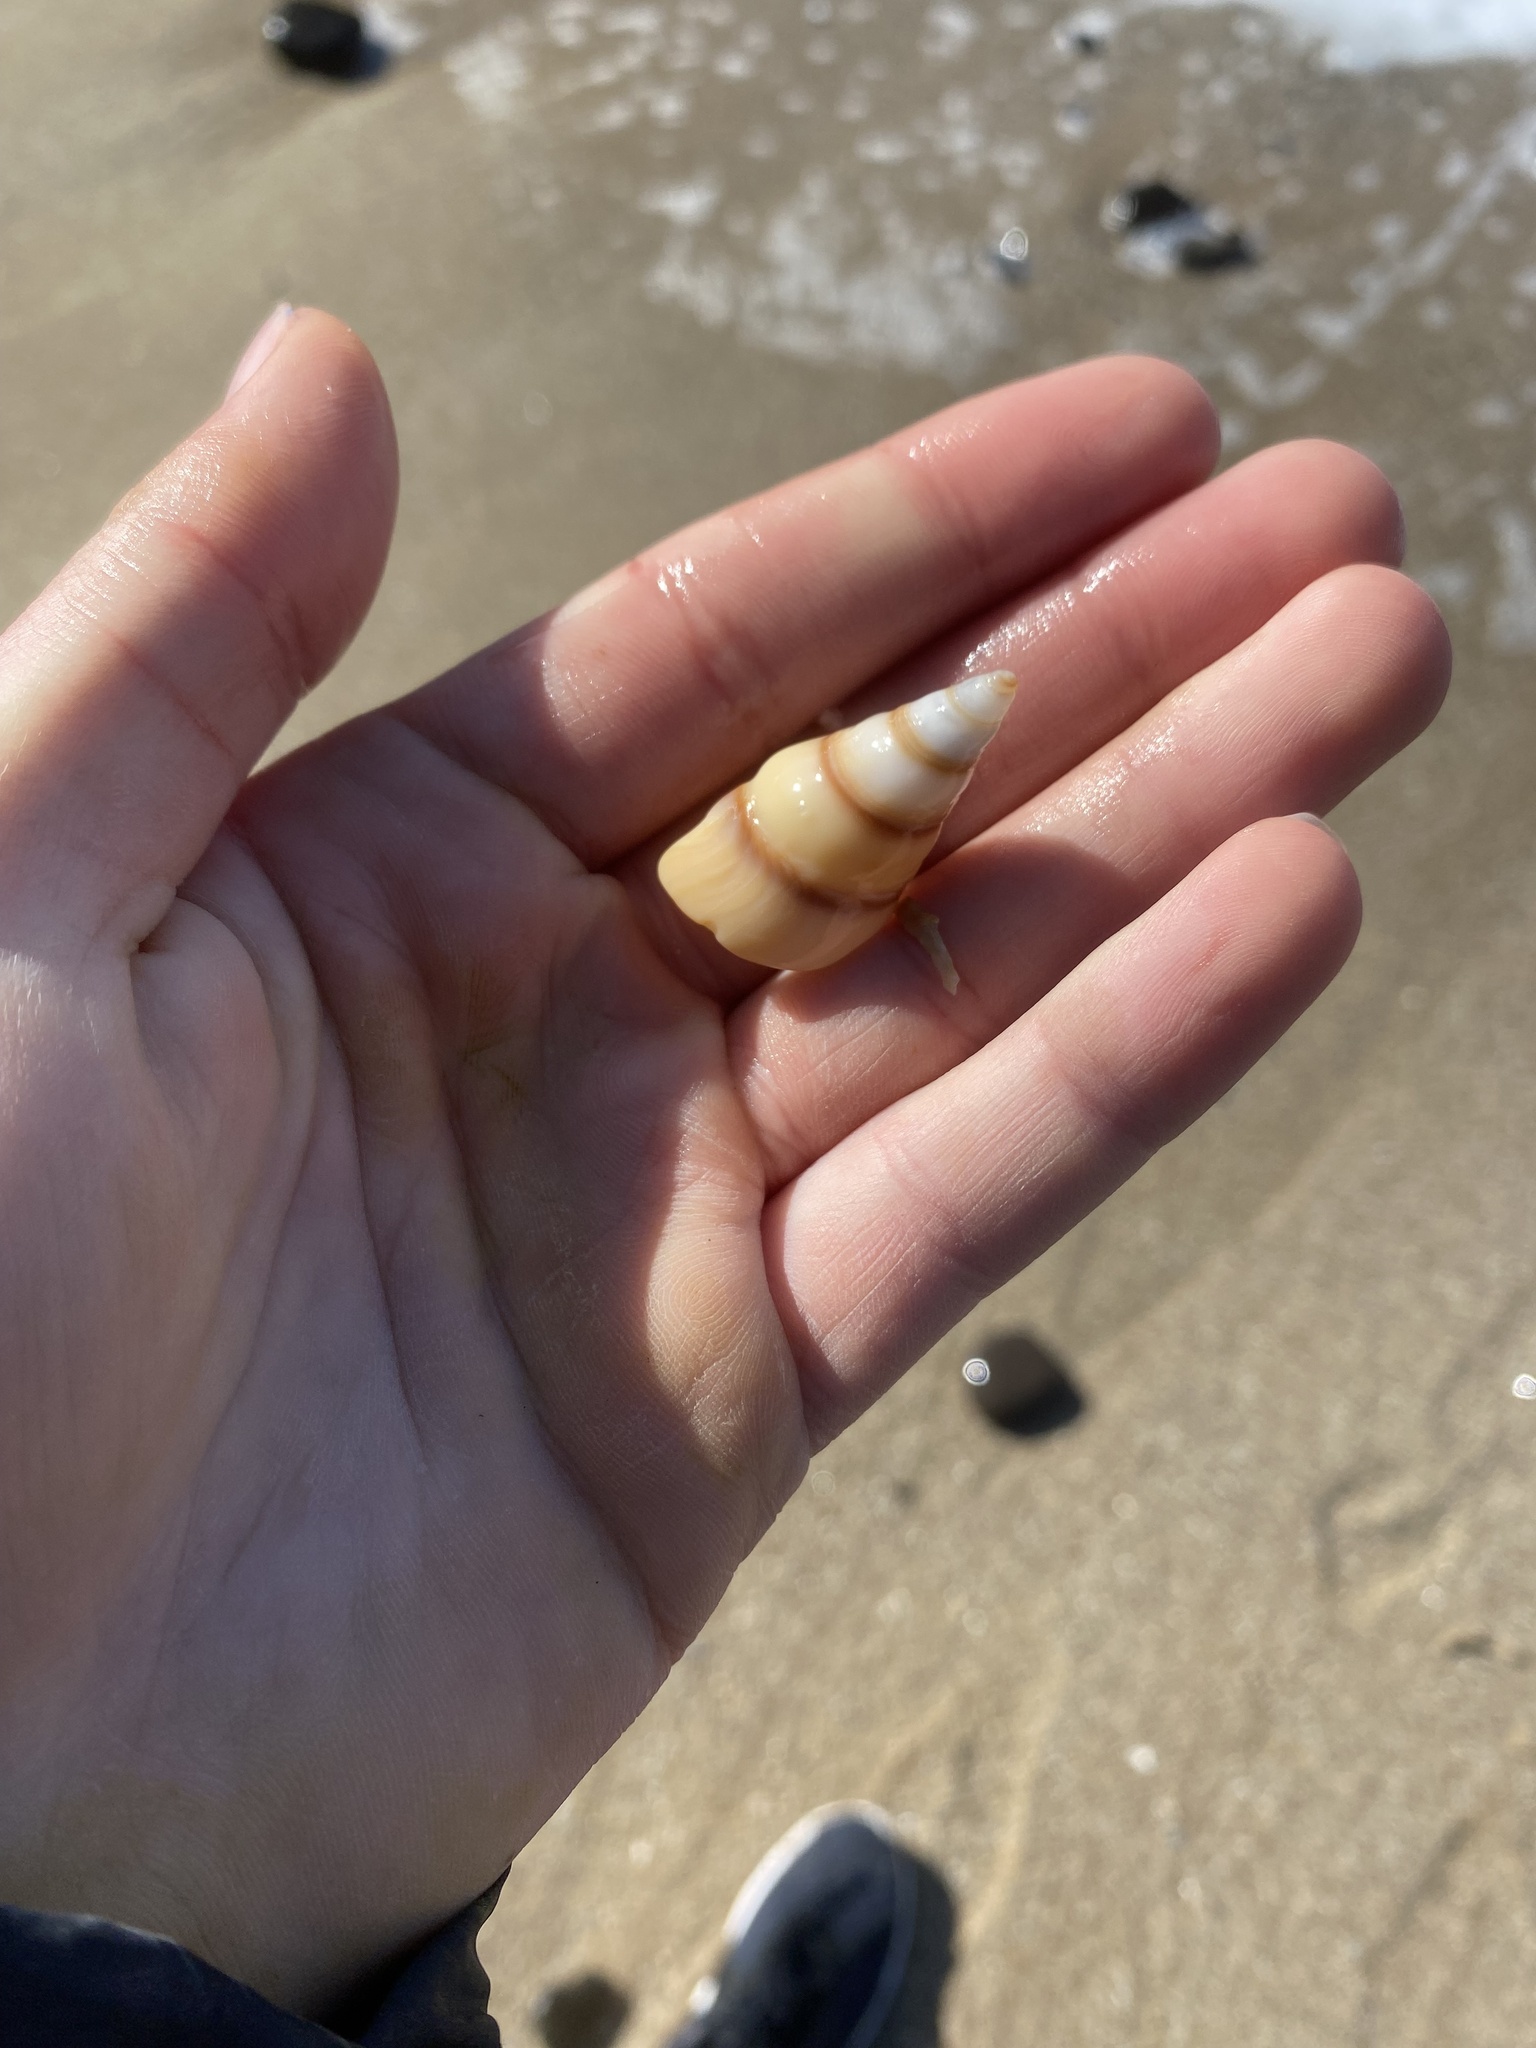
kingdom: Animalia
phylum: Mollusca
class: Gastropoda
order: Neogastropoda
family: Pseudomelatomidae
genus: Megasurcula
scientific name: Megasurcula carpenteriana
